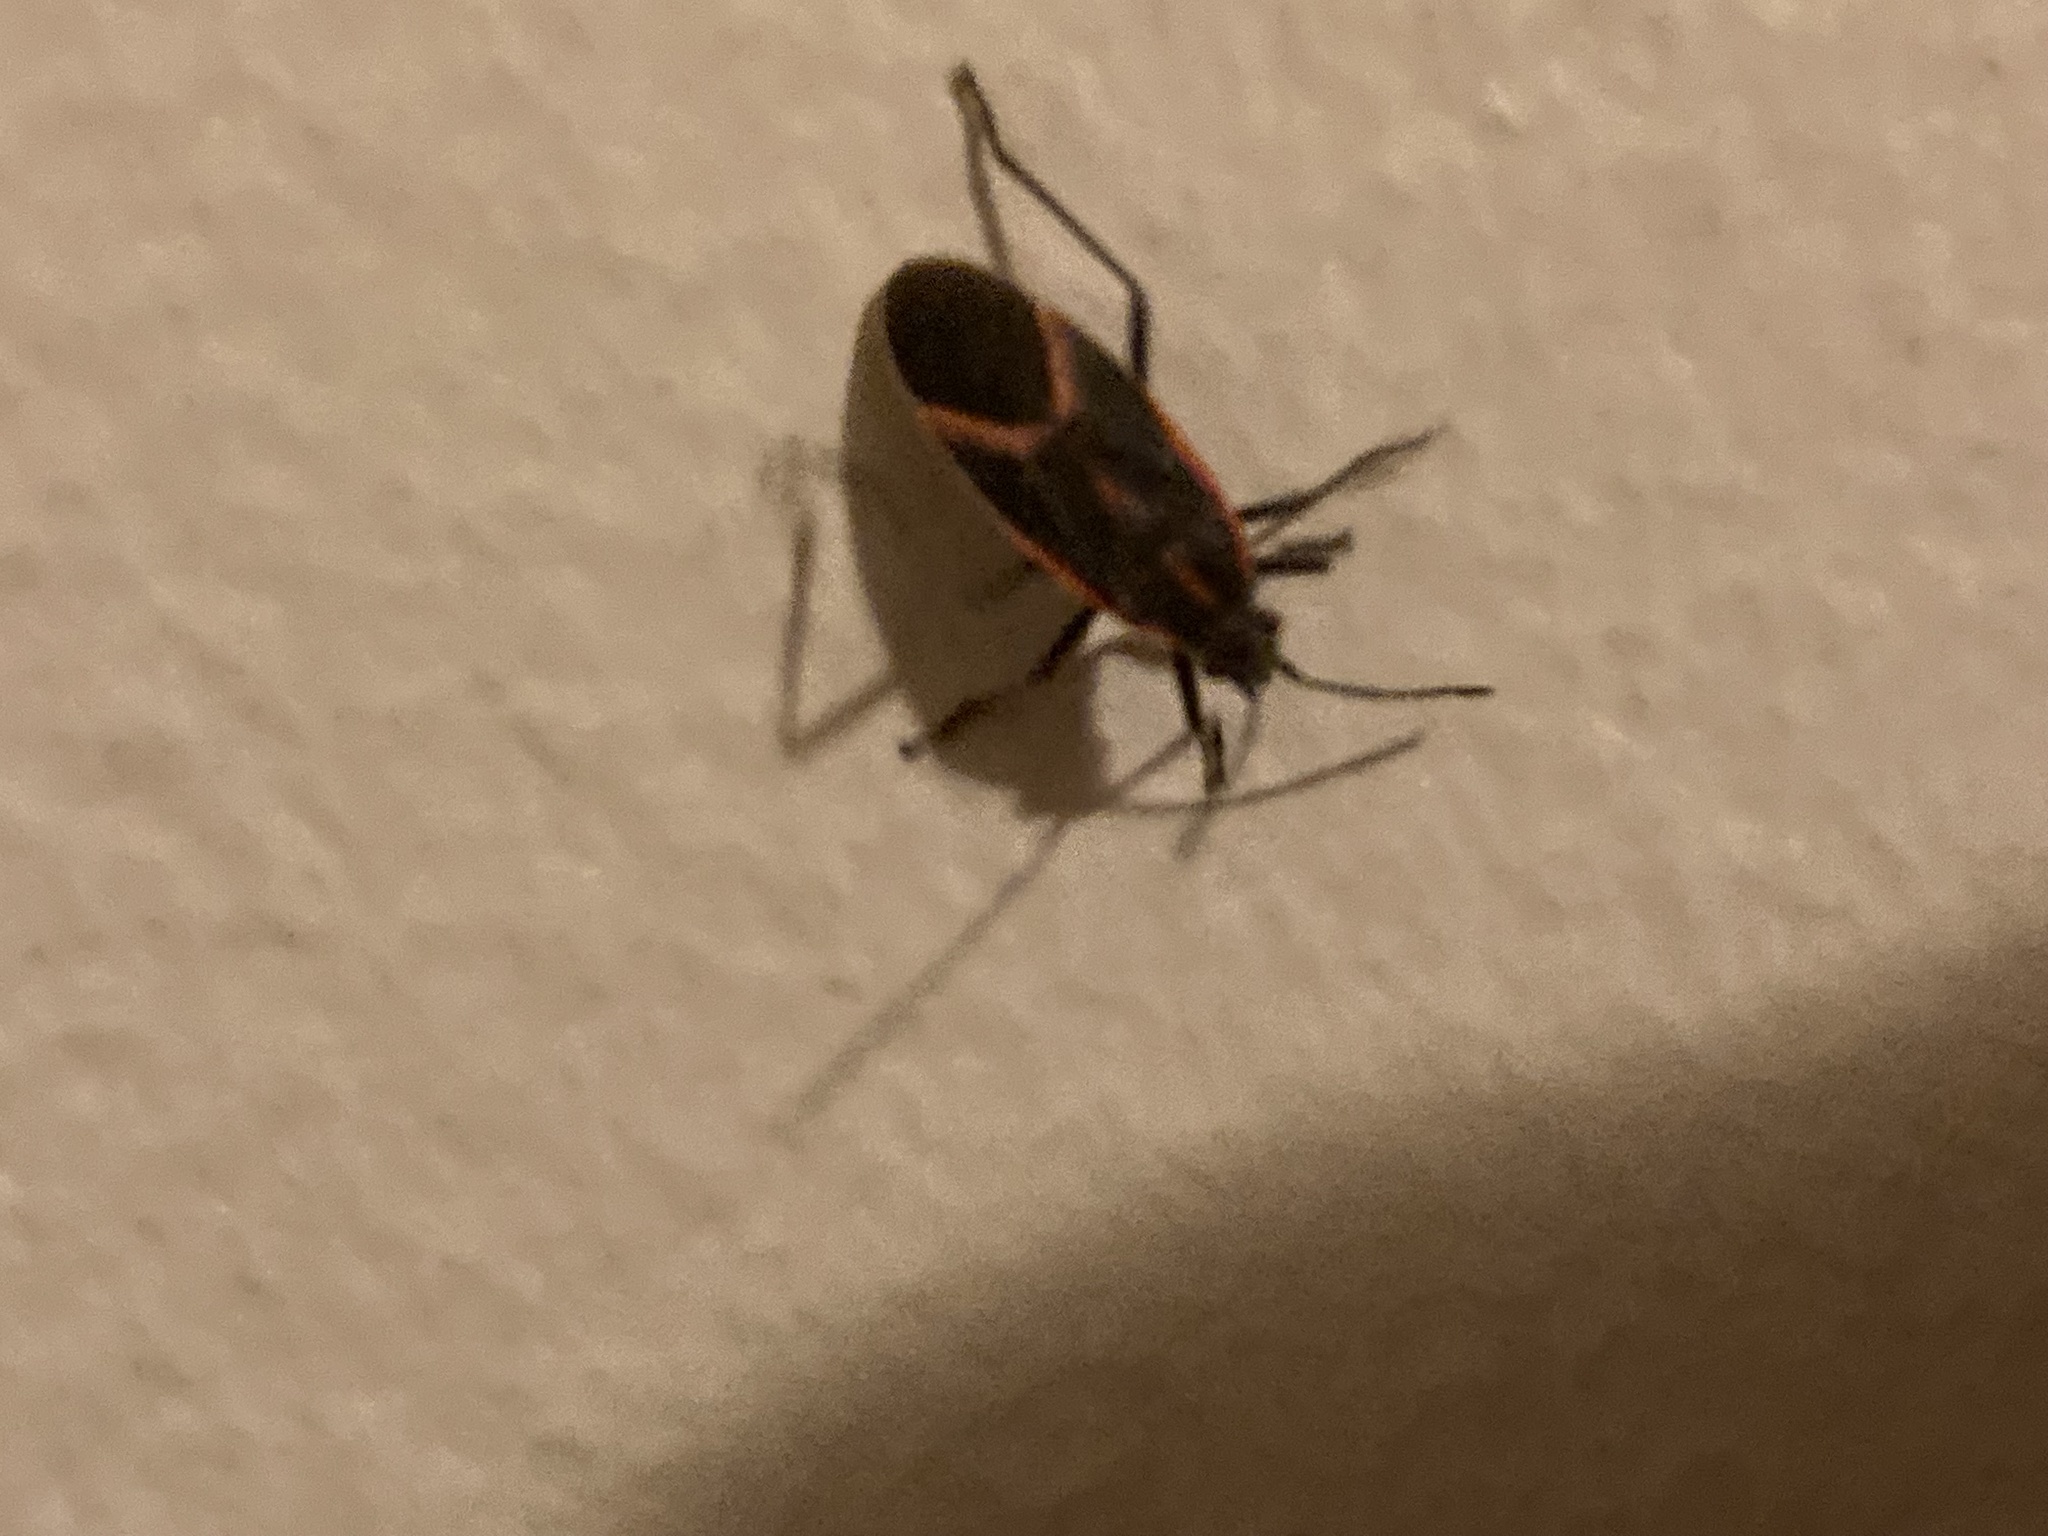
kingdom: Animalia
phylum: Arthropoda
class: Insecta
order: Hemiptera
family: Rhopalidae
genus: Boisea
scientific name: Boisea trivittata
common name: Boxelder bug
